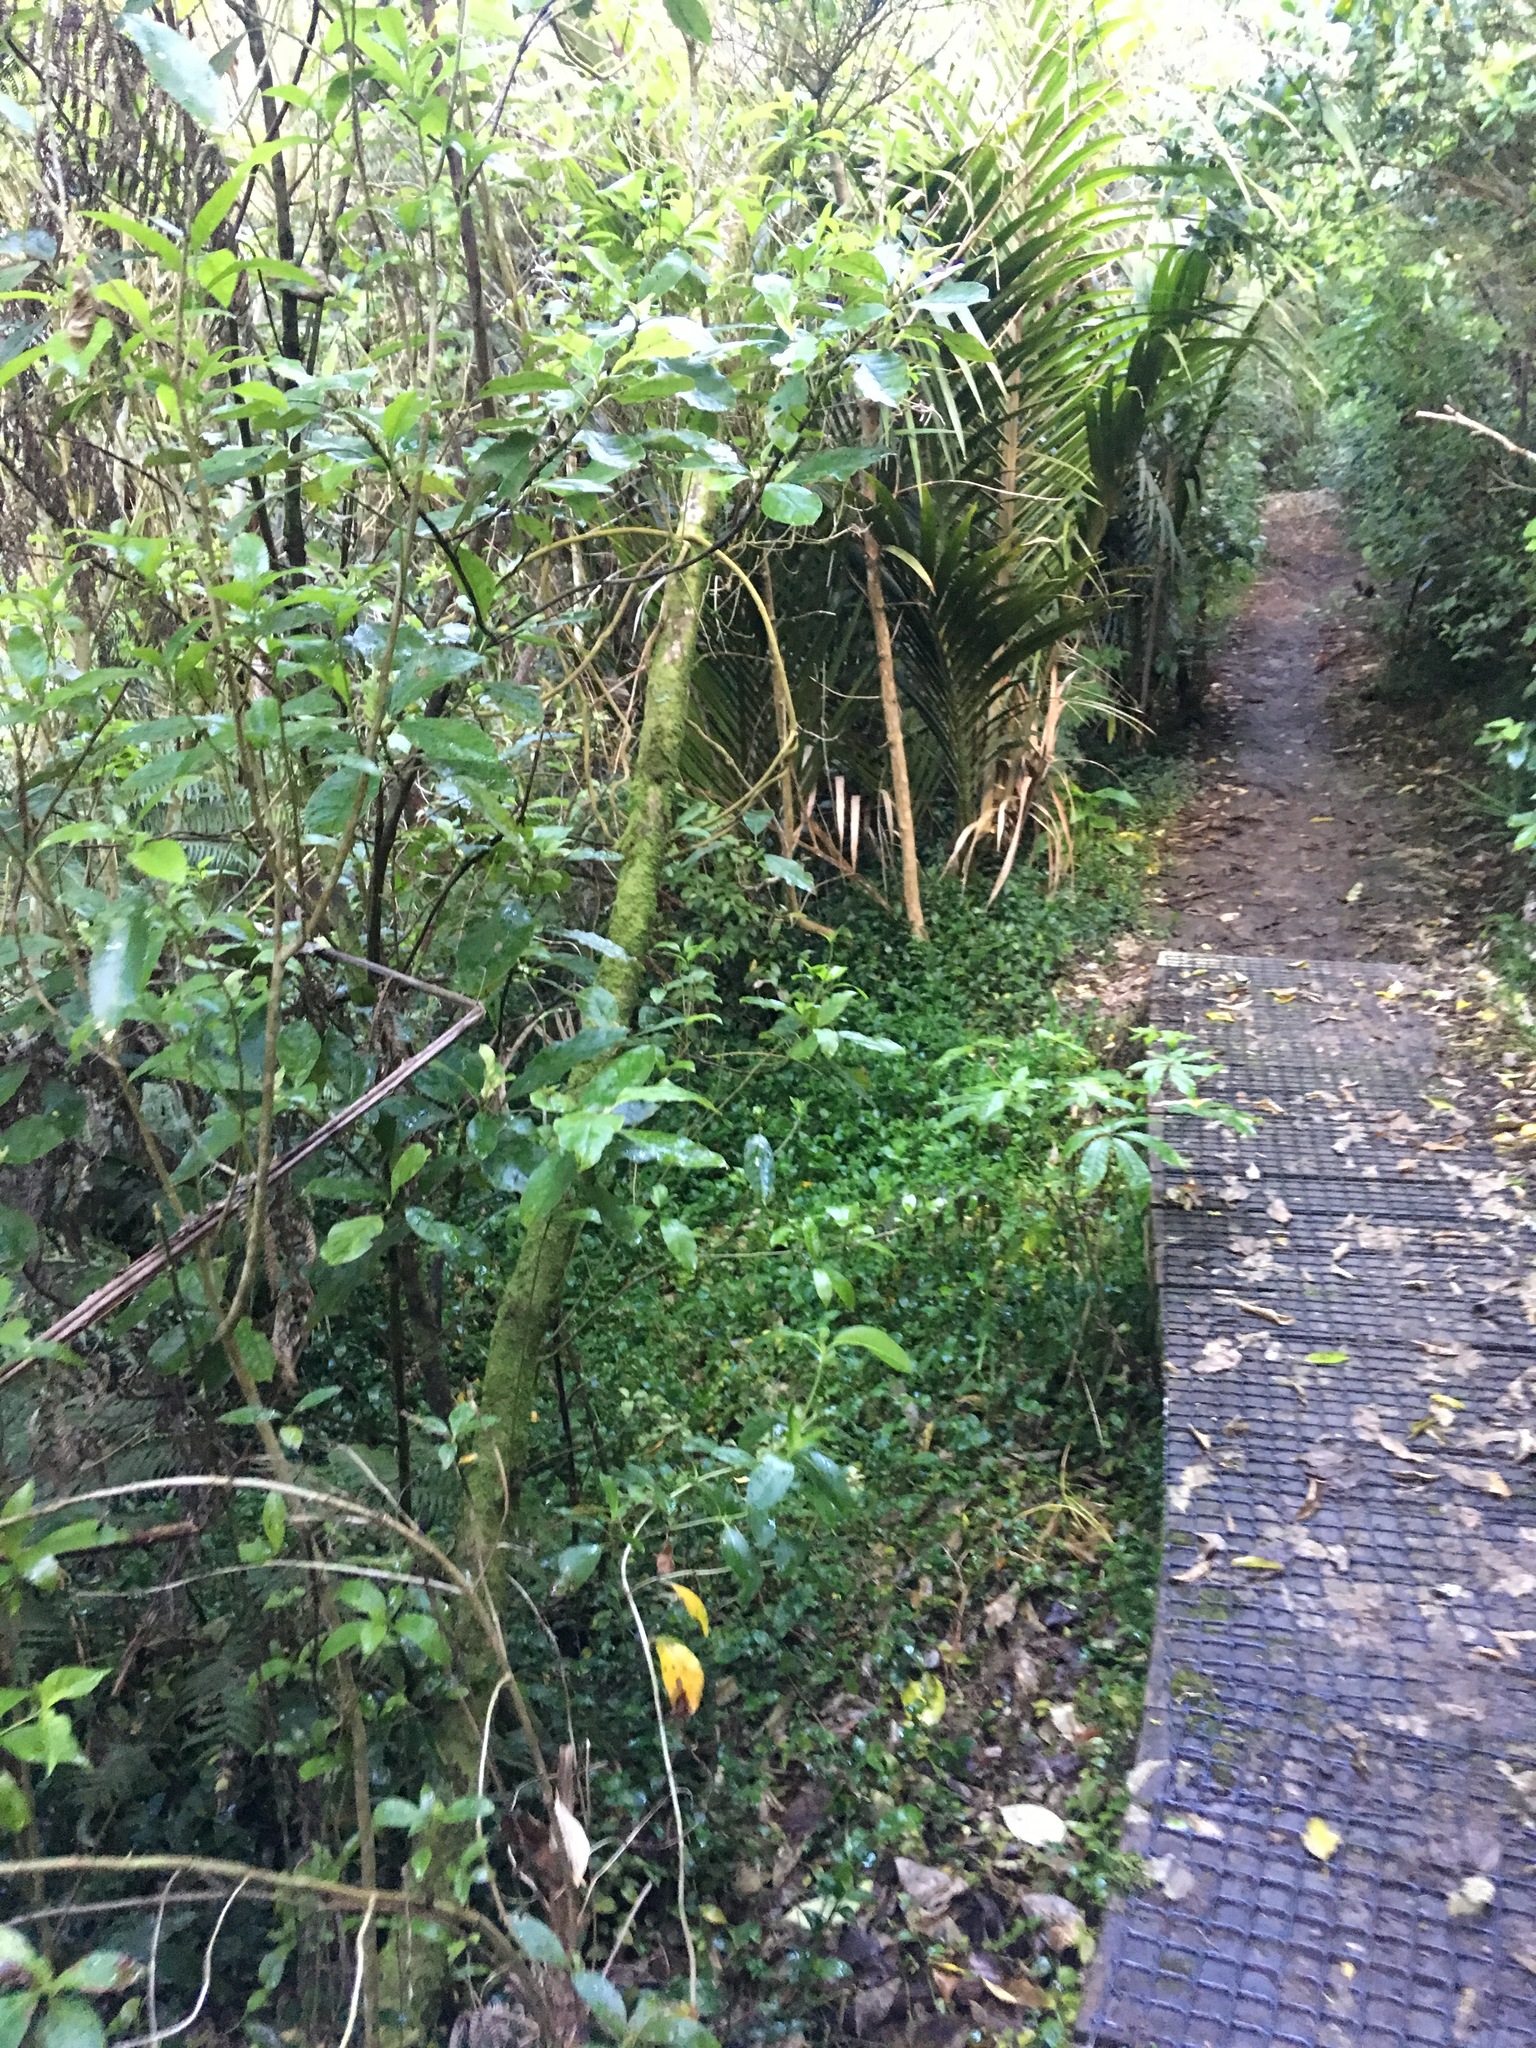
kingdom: Plantae
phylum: Tracheophyta
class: Magnoliopsida
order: Apiales
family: Araliaceae
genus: Schefflera
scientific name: Schefflera digitata
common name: Pate
